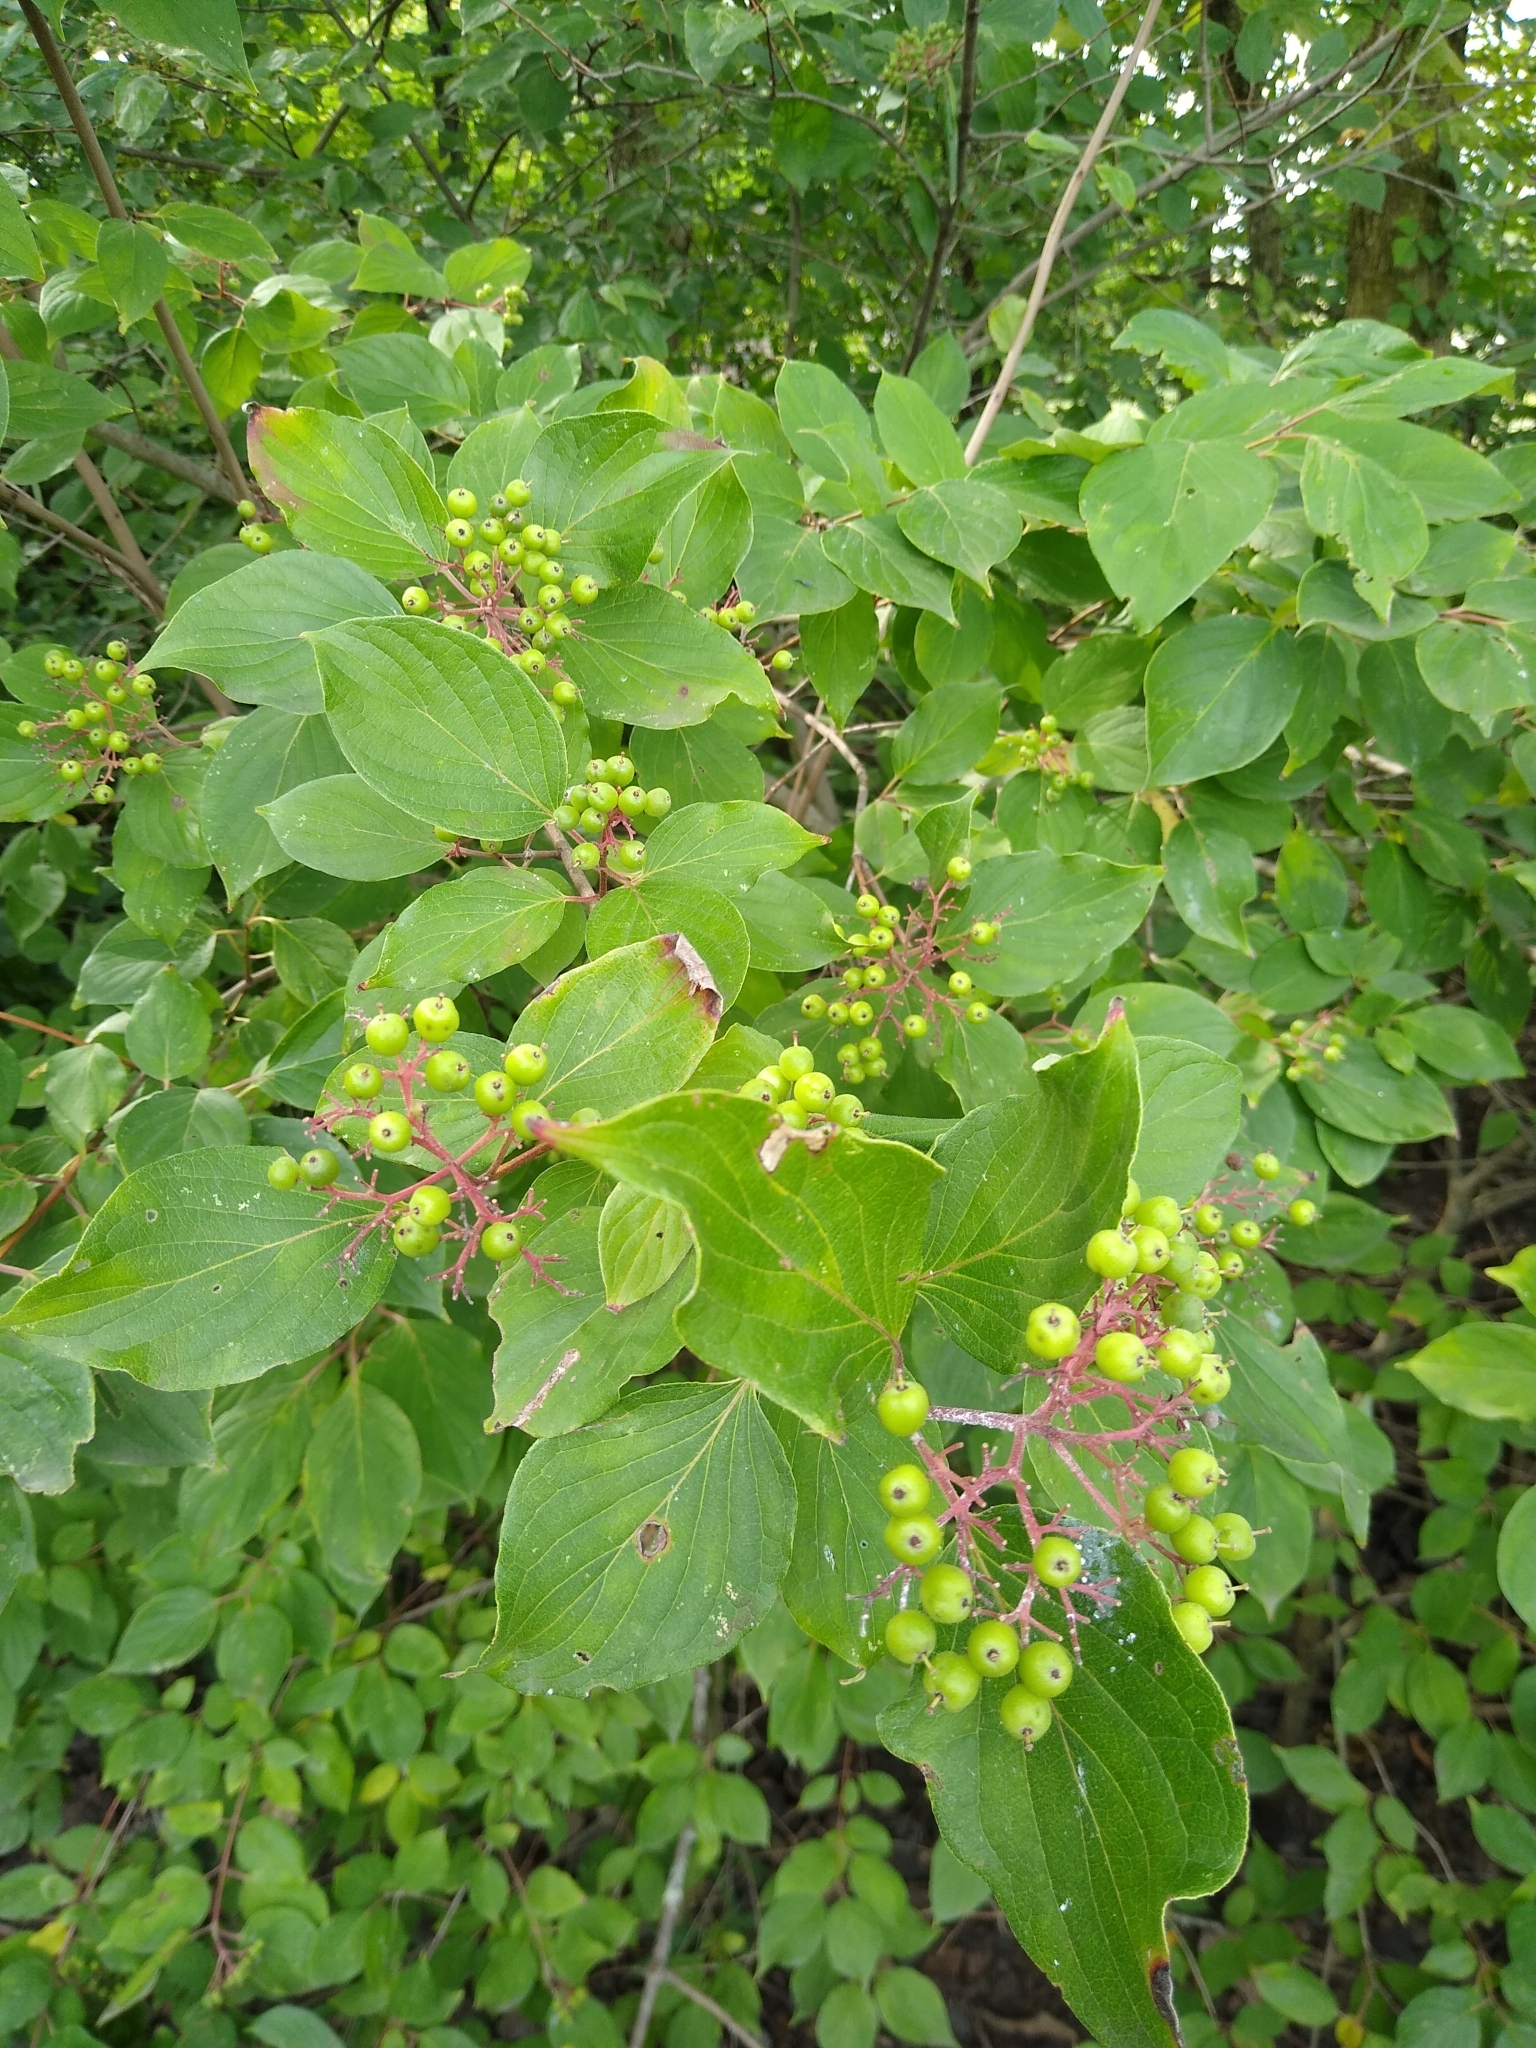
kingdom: Plantae
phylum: Tracheophyta
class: Magnoliopsida
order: Cornales
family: Cornaceae
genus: Cornus
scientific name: Cornus drummondii
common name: Rough-leaf dogwood
